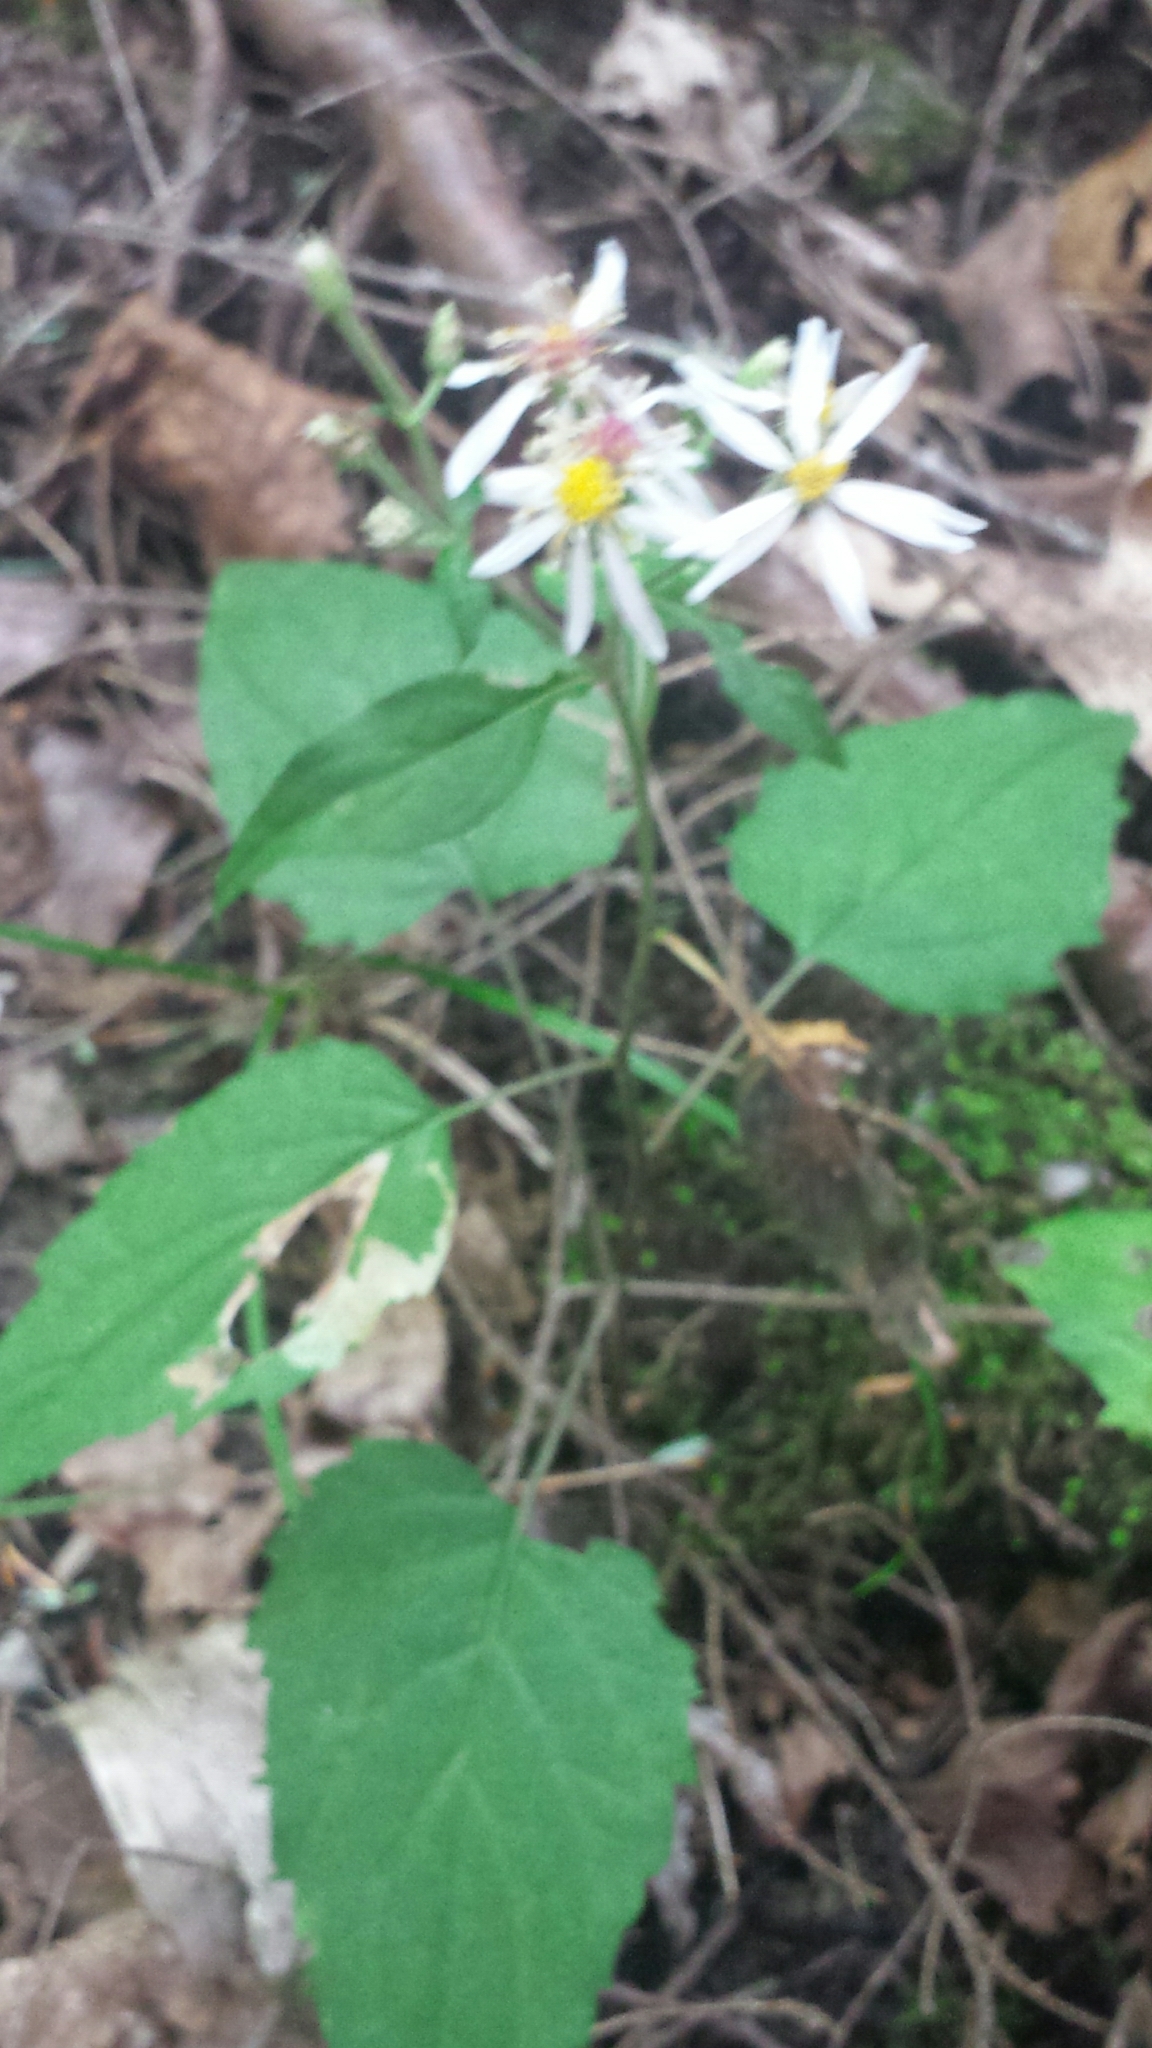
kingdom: Plantae
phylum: Tracheophyta
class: Magnoliopsida
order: Asterales
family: Asteraceae
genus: Eurybia
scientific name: Eurybia divaricata
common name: White wood aster
